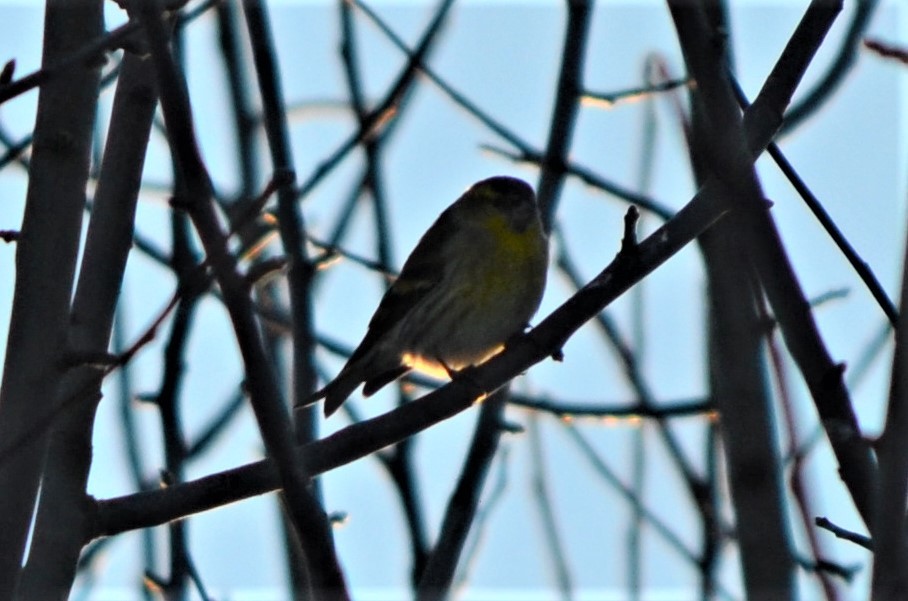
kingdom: Animalia
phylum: Chordata
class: Aves
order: Passeriformes
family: Fringillidae
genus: Spinus
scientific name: Spinus spinus
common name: Eurasian siskin
